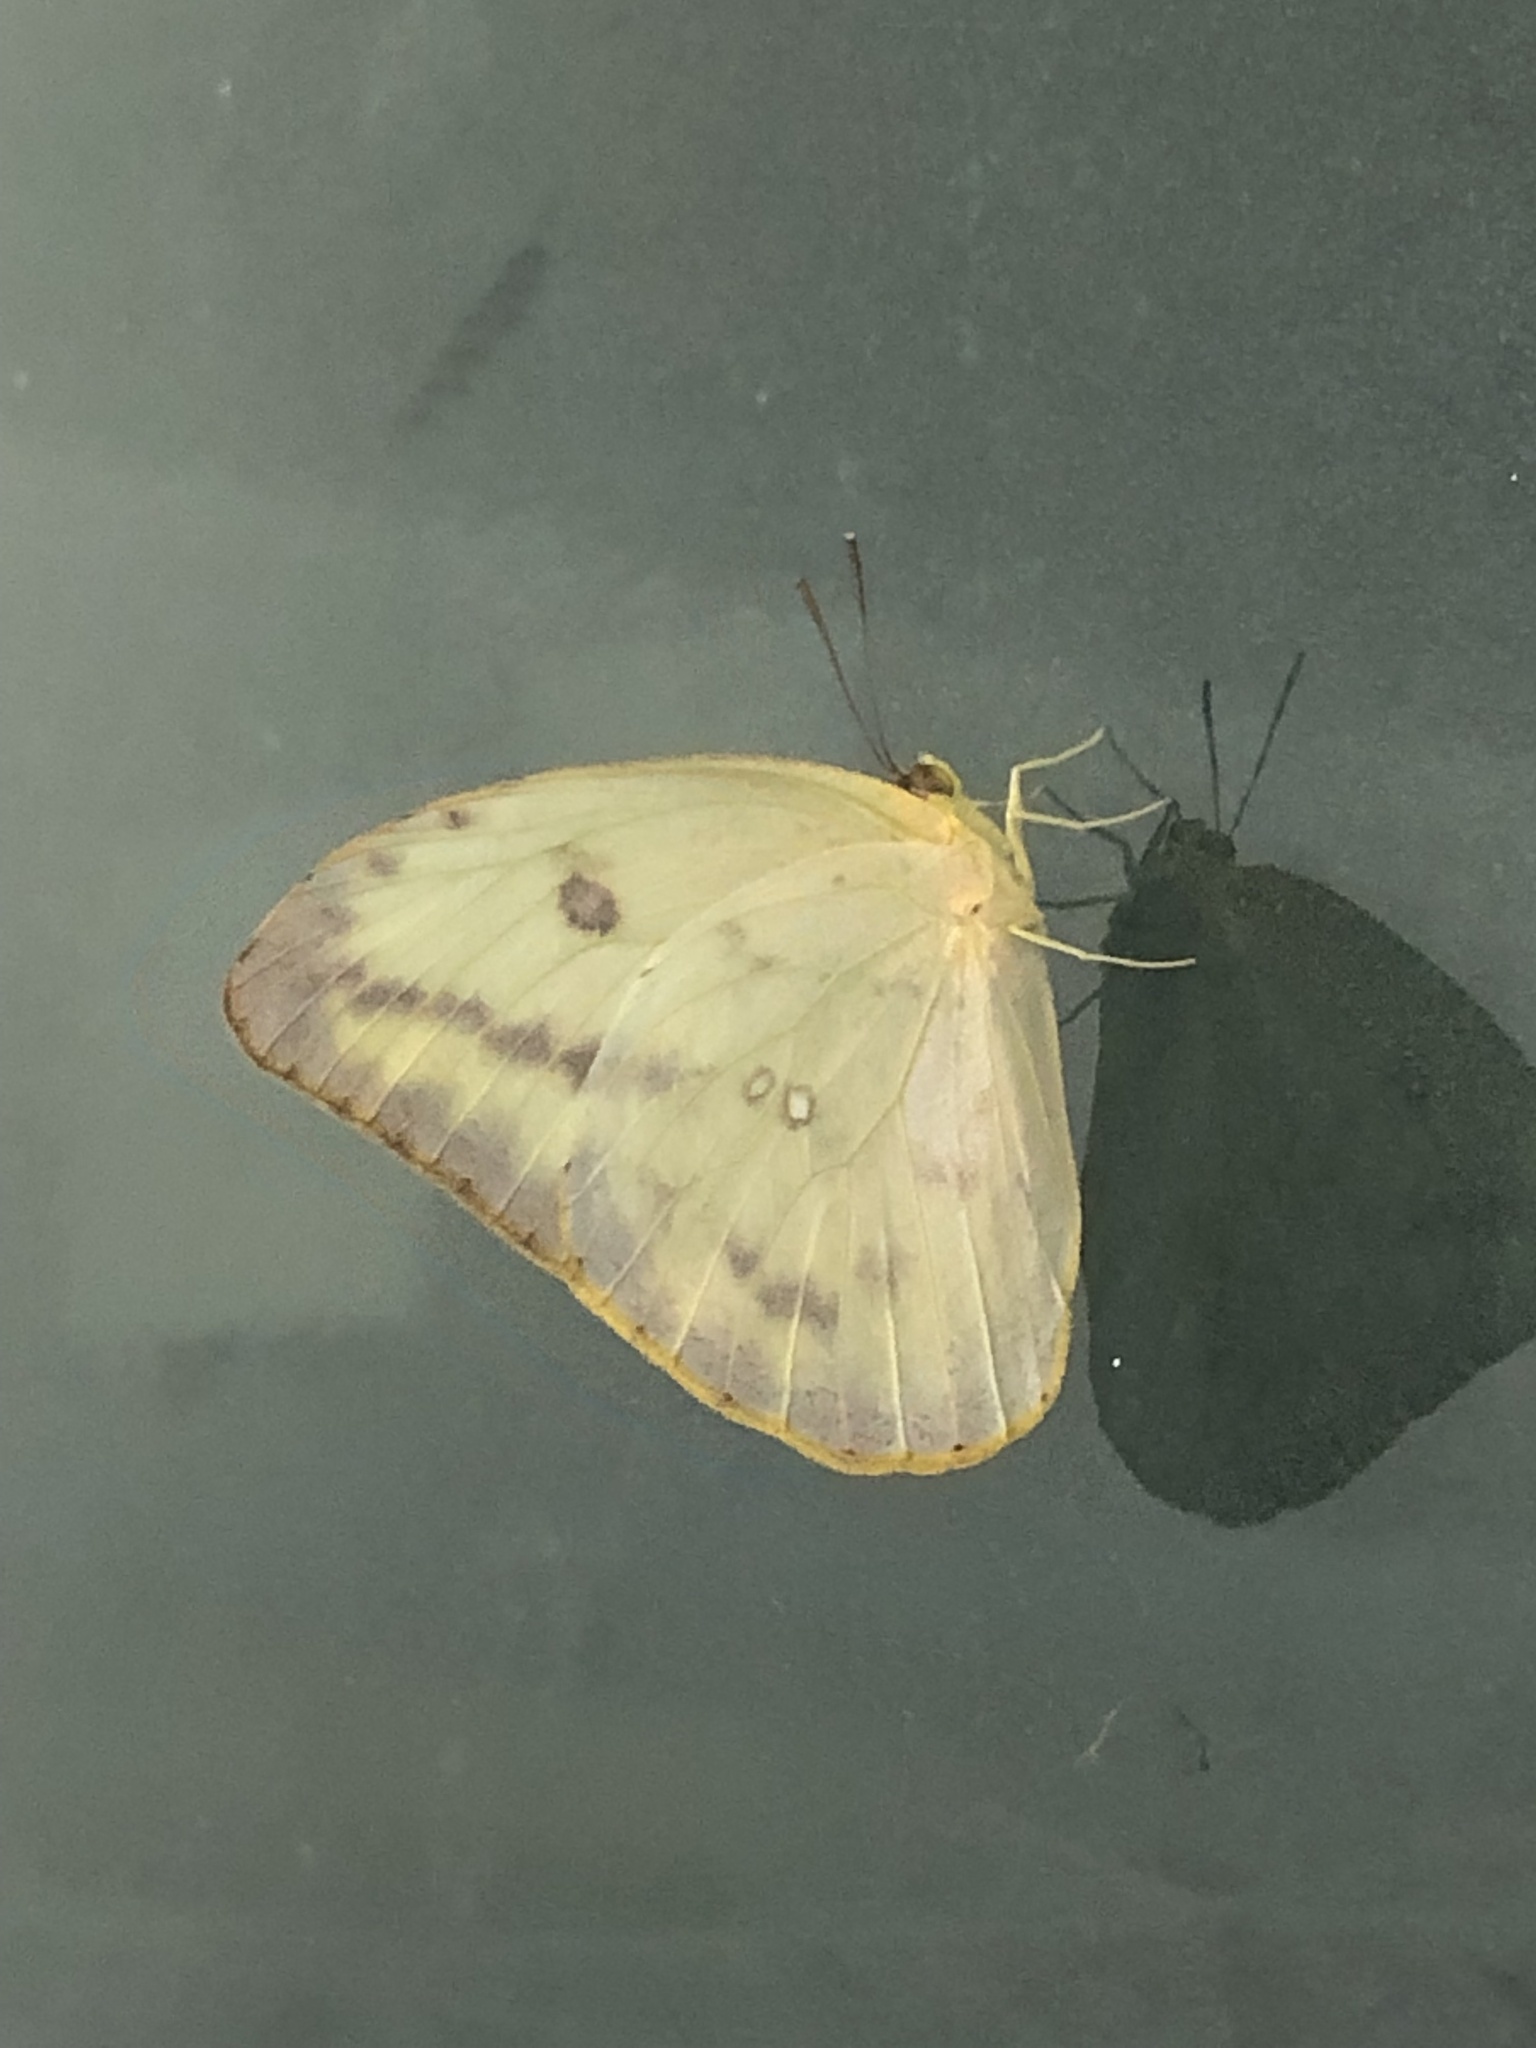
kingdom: Animalia
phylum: Arthropoda
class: Insecta
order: Lepidoptera
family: Pieridae
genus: Phoebis
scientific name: Phoebis agarithe
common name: Large orange sulphur
